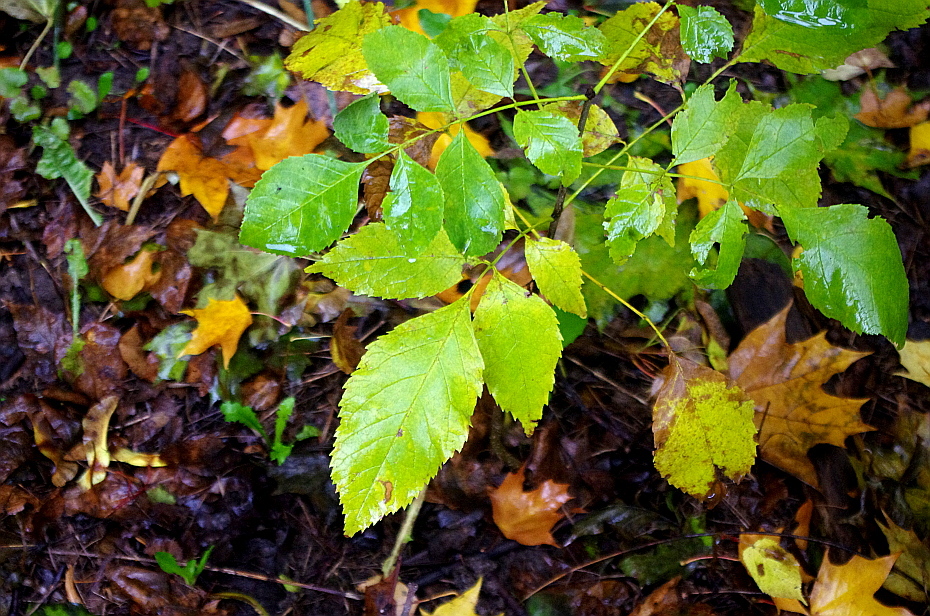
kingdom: Plantae
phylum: Tracheophyta
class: Magnoliopsida
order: Lamiales
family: Oleaceae
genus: Fraxinus
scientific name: Fraxinus pennsylvanica
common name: Green ash
